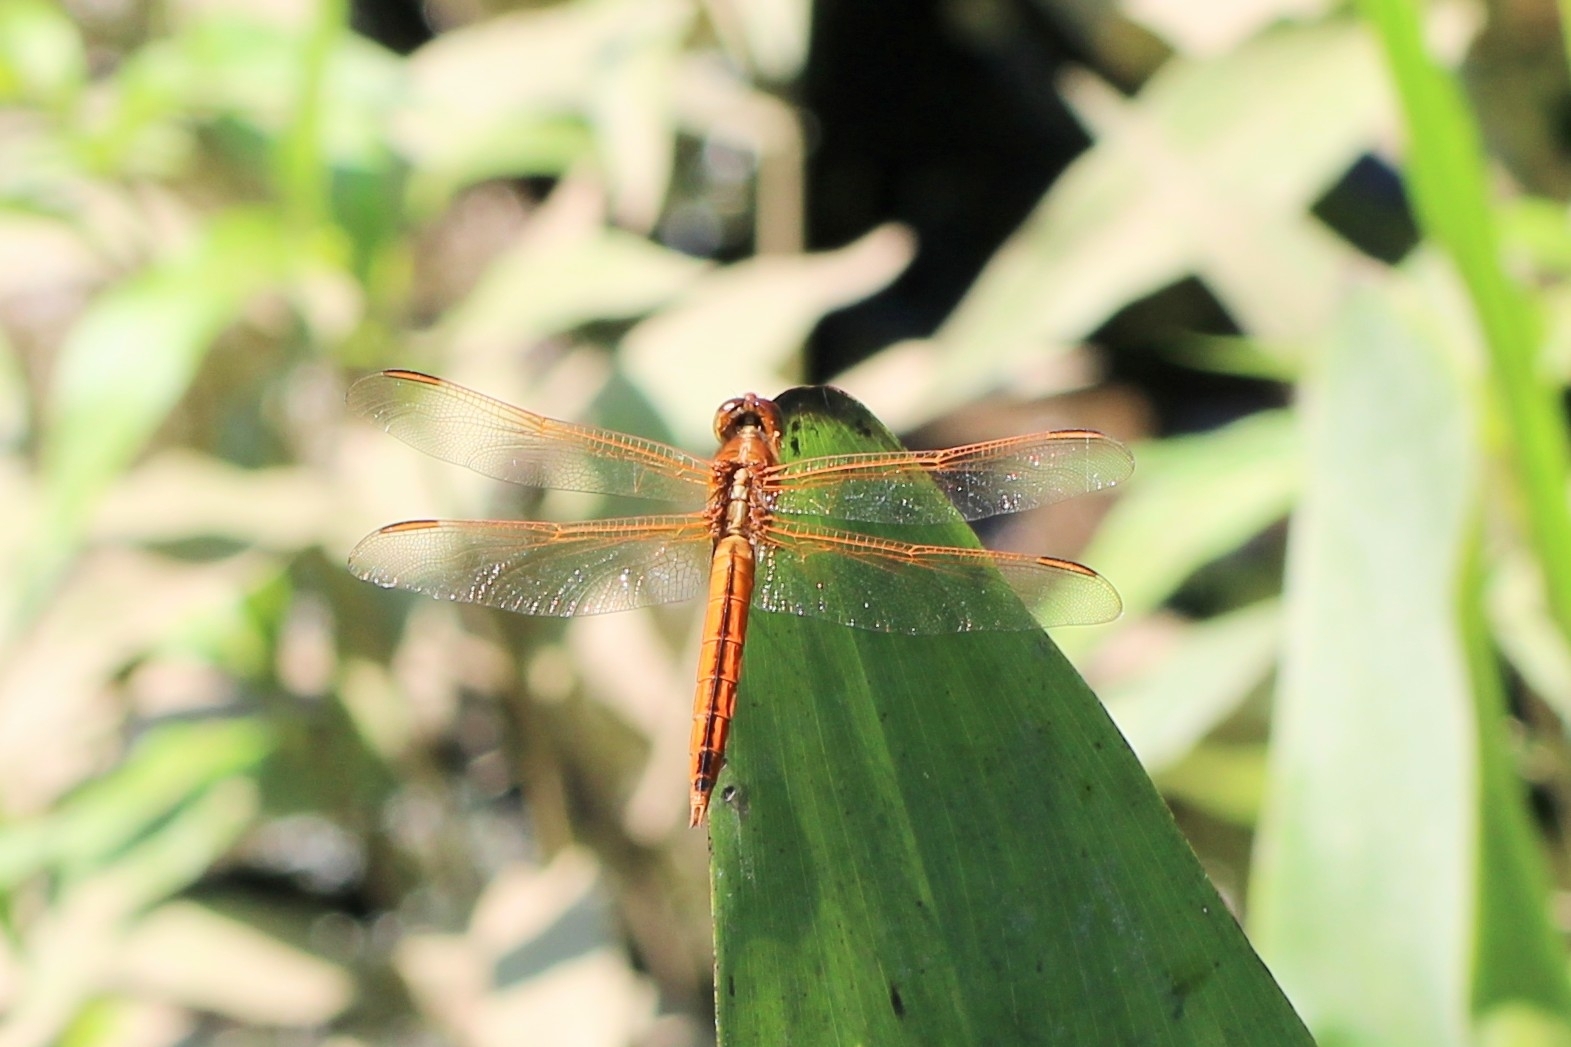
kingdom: Animalia
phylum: Arthropoda
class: Insecta
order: Odonata
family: Libellulidae
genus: Libellula
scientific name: Libellula needhami
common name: Needham's skimmer
